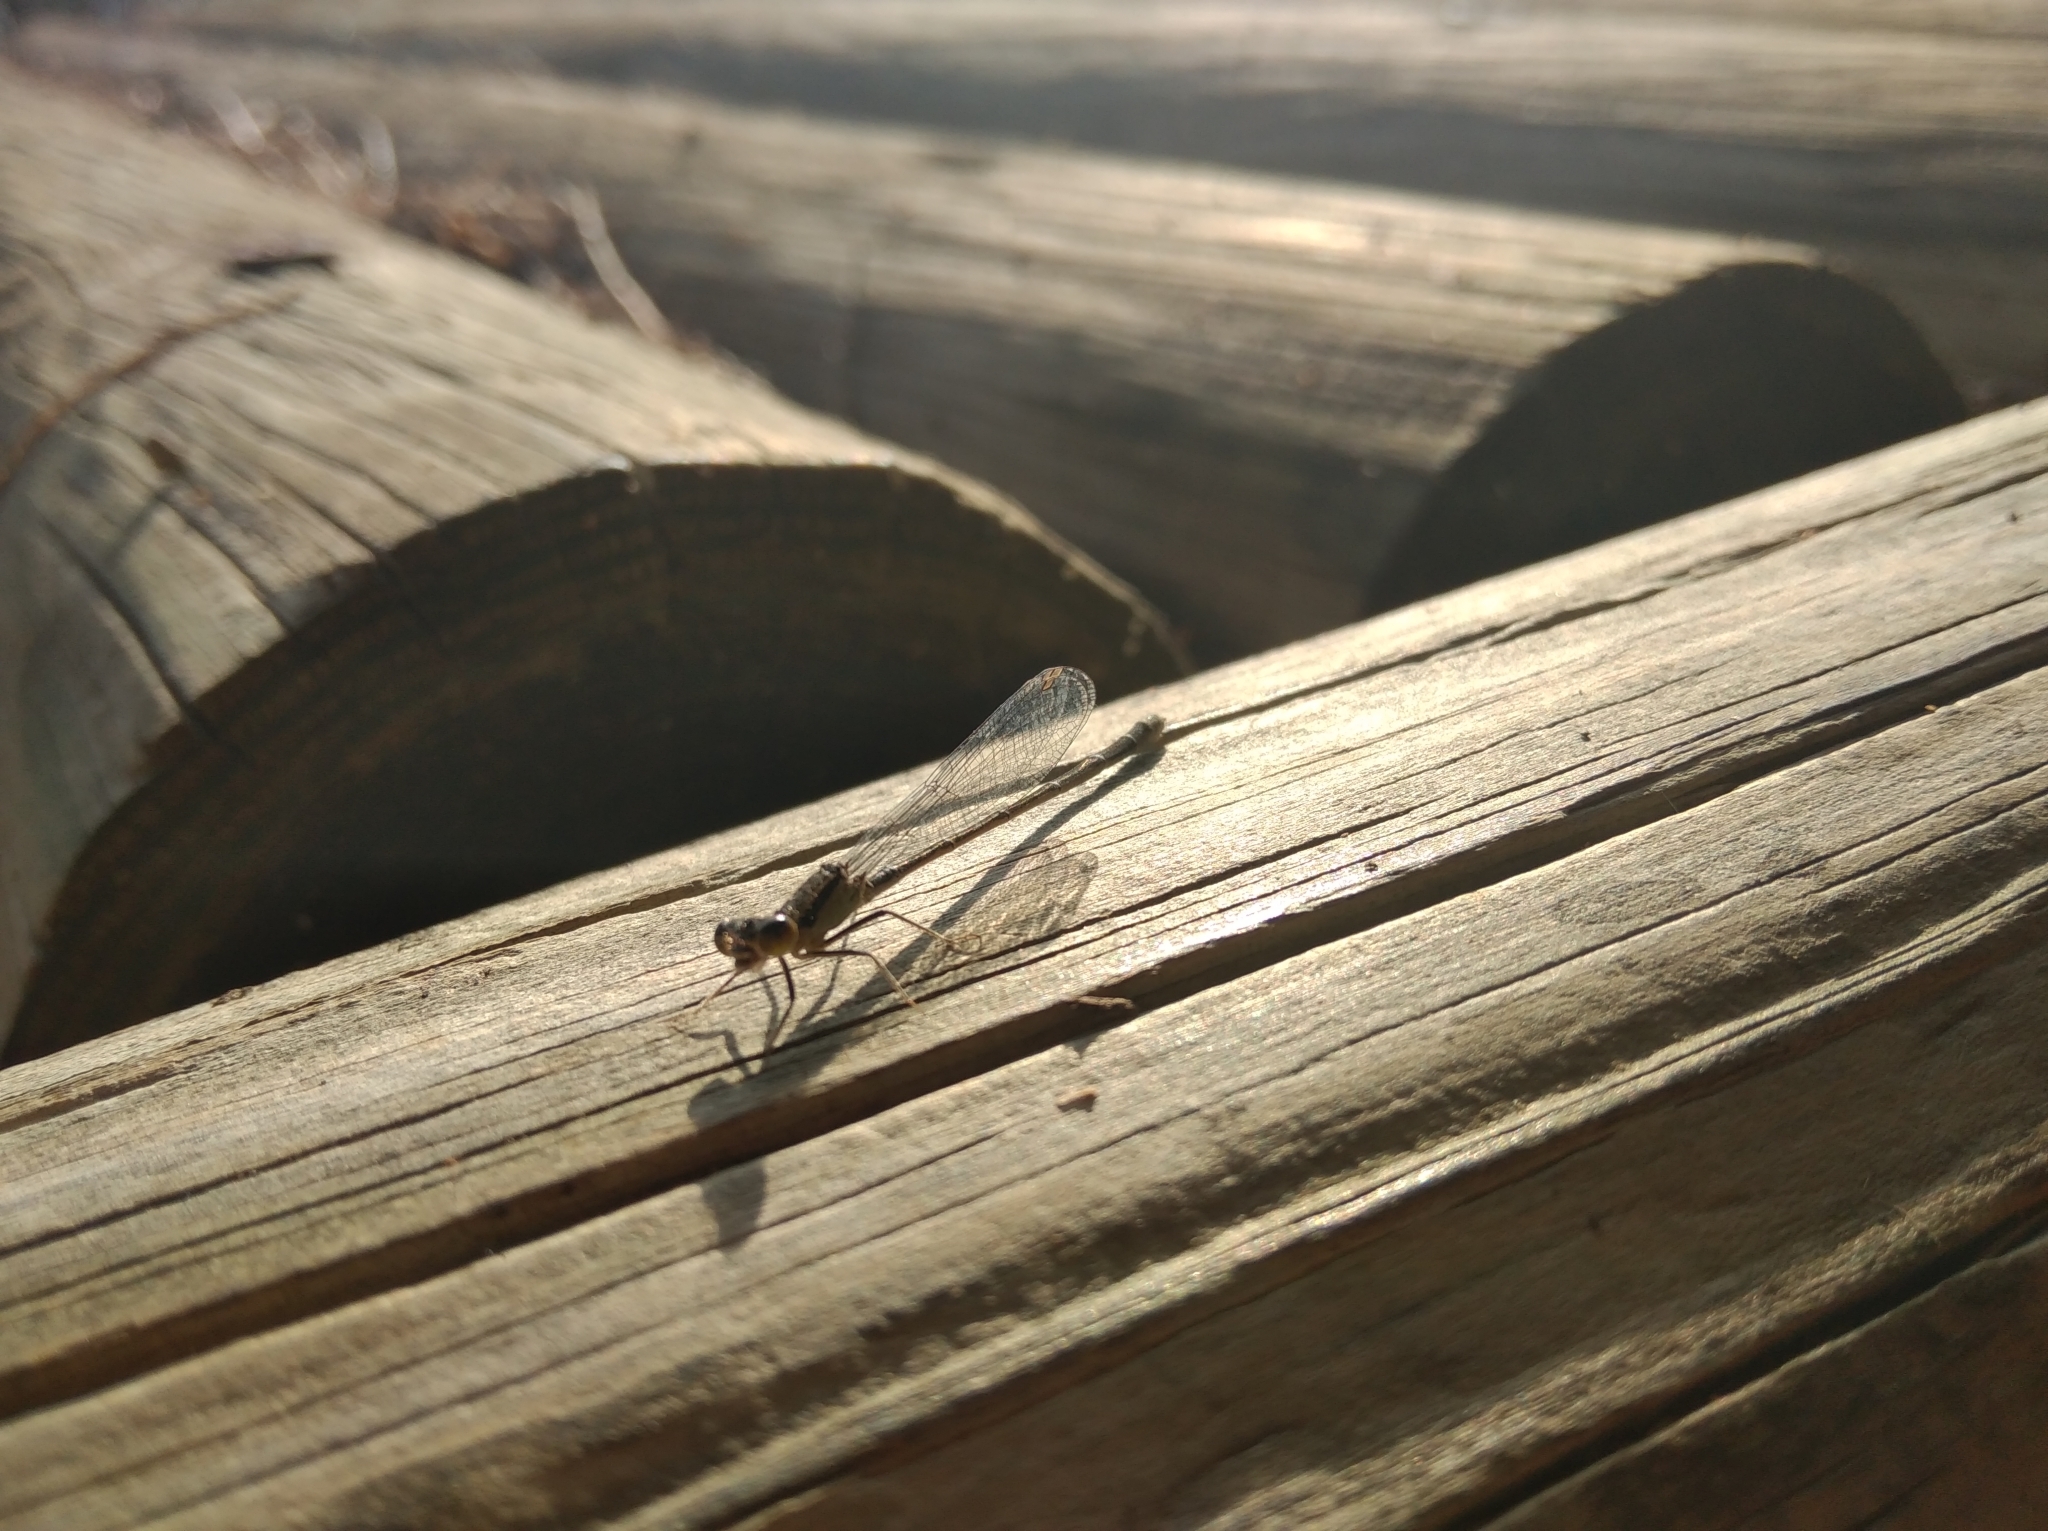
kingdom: Animalia
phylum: Arthropoda
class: Insecta
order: Odonata
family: Coenagrionidae
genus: Erythromma
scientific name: Erythromma viridulum
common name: Small red-eyed damselfly
